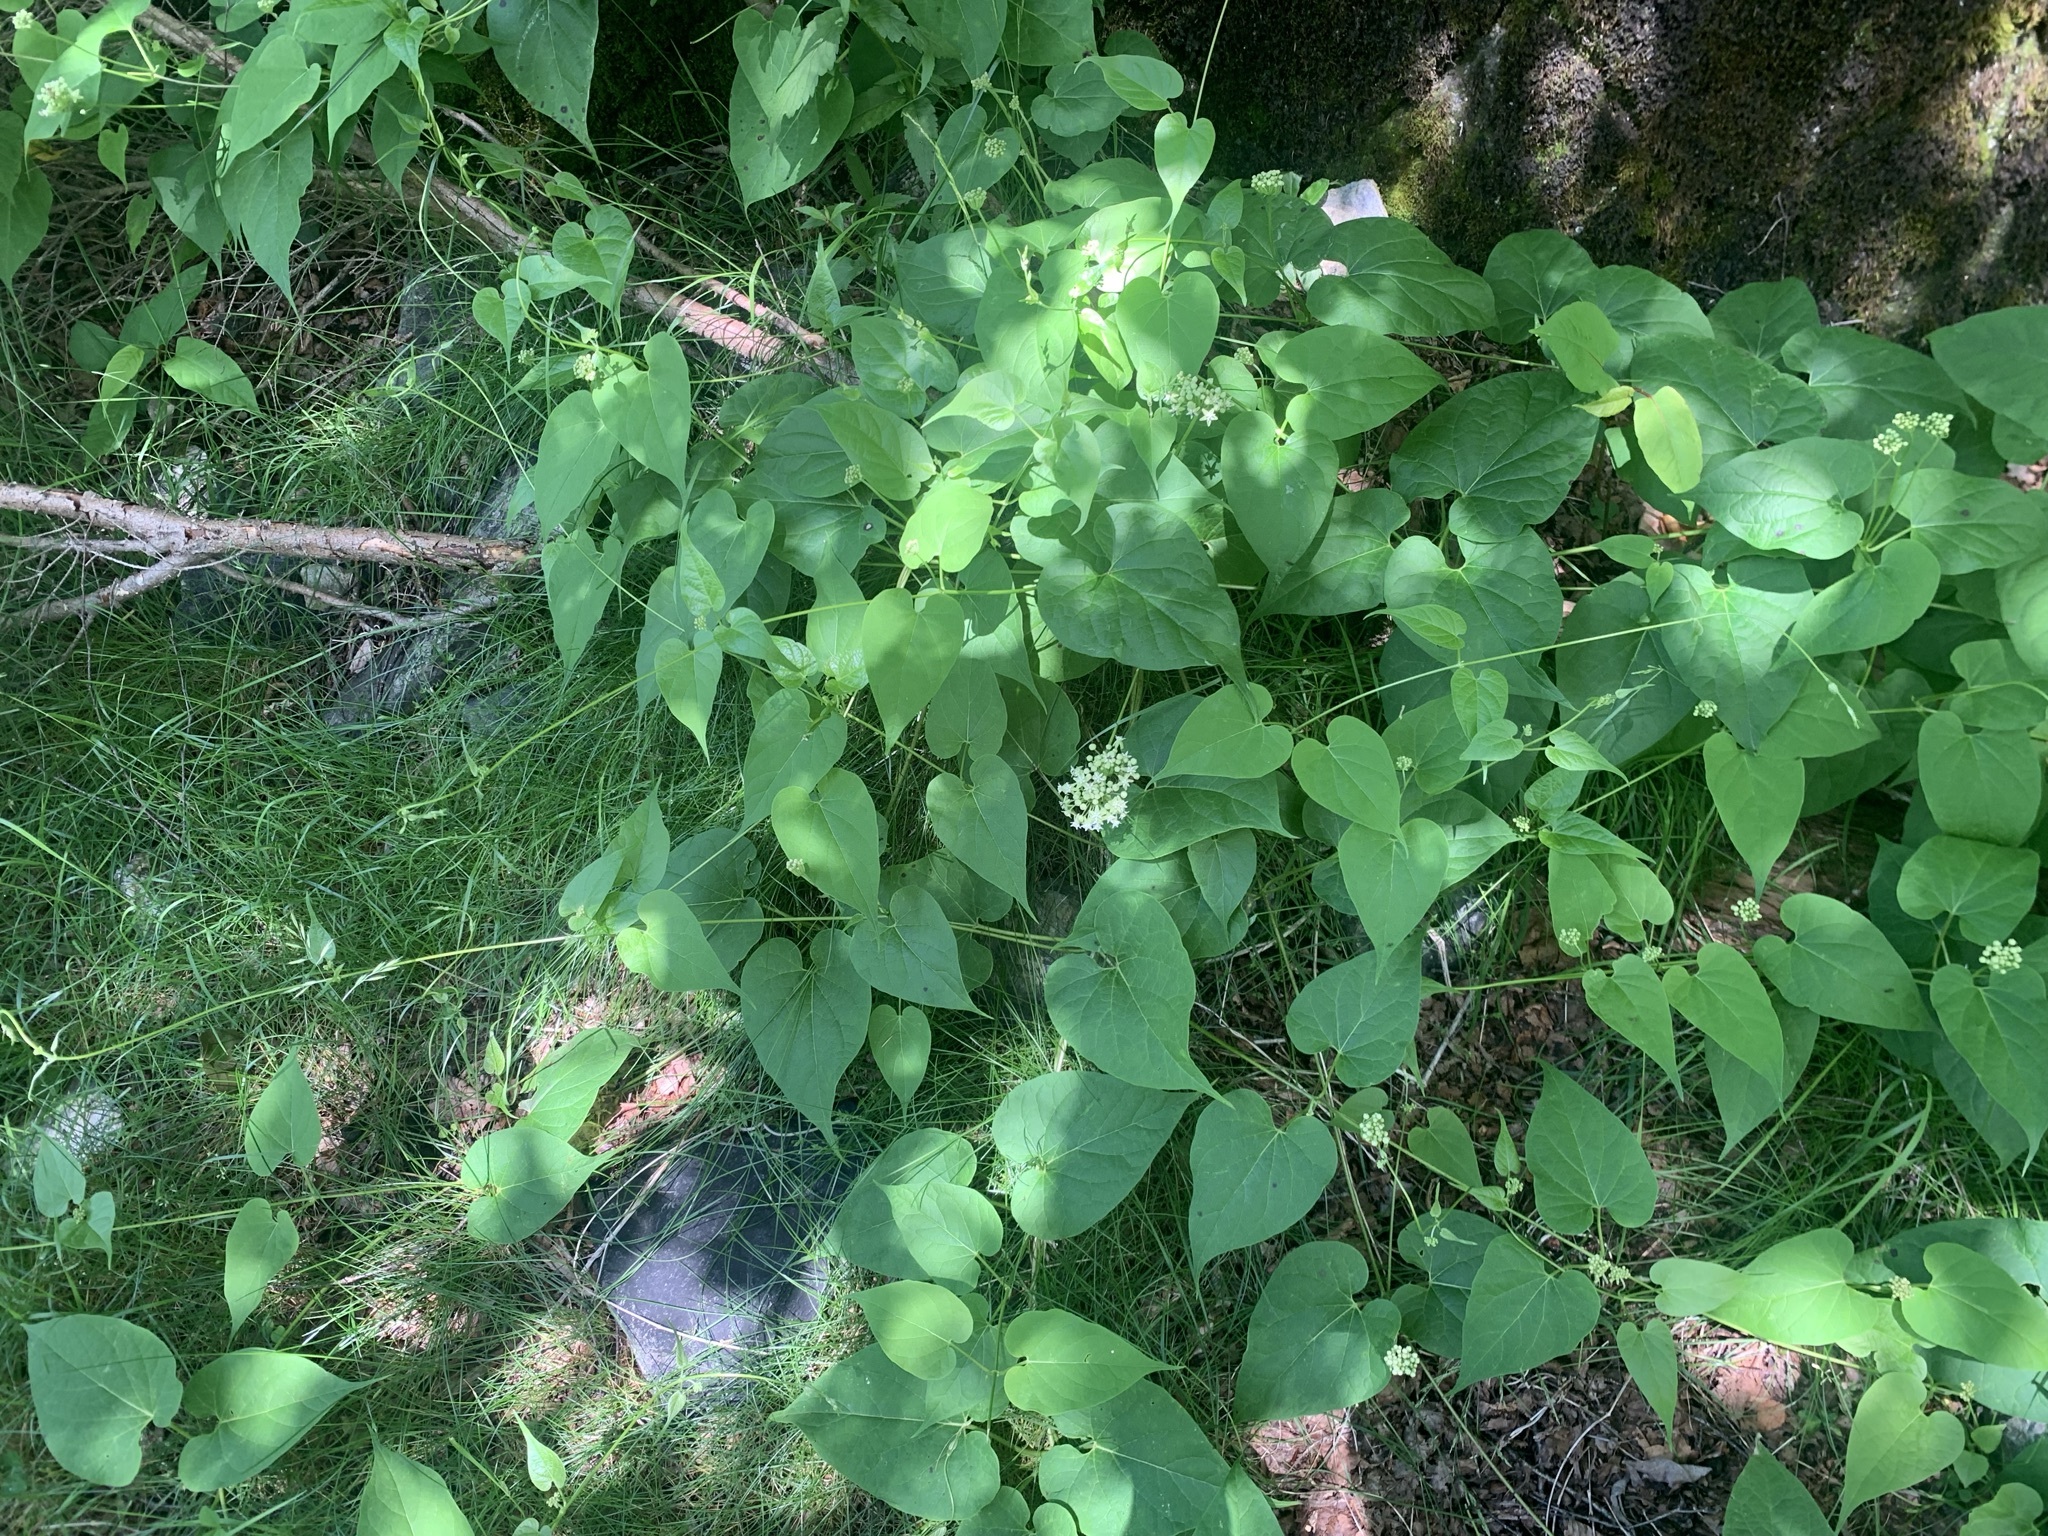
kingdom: Plantae
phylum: Tracheophyta
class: Magnoliopsida
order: Gentianales
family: Apocynaceae
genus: Cynanchum
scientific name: Cynanchum maximoviczii
